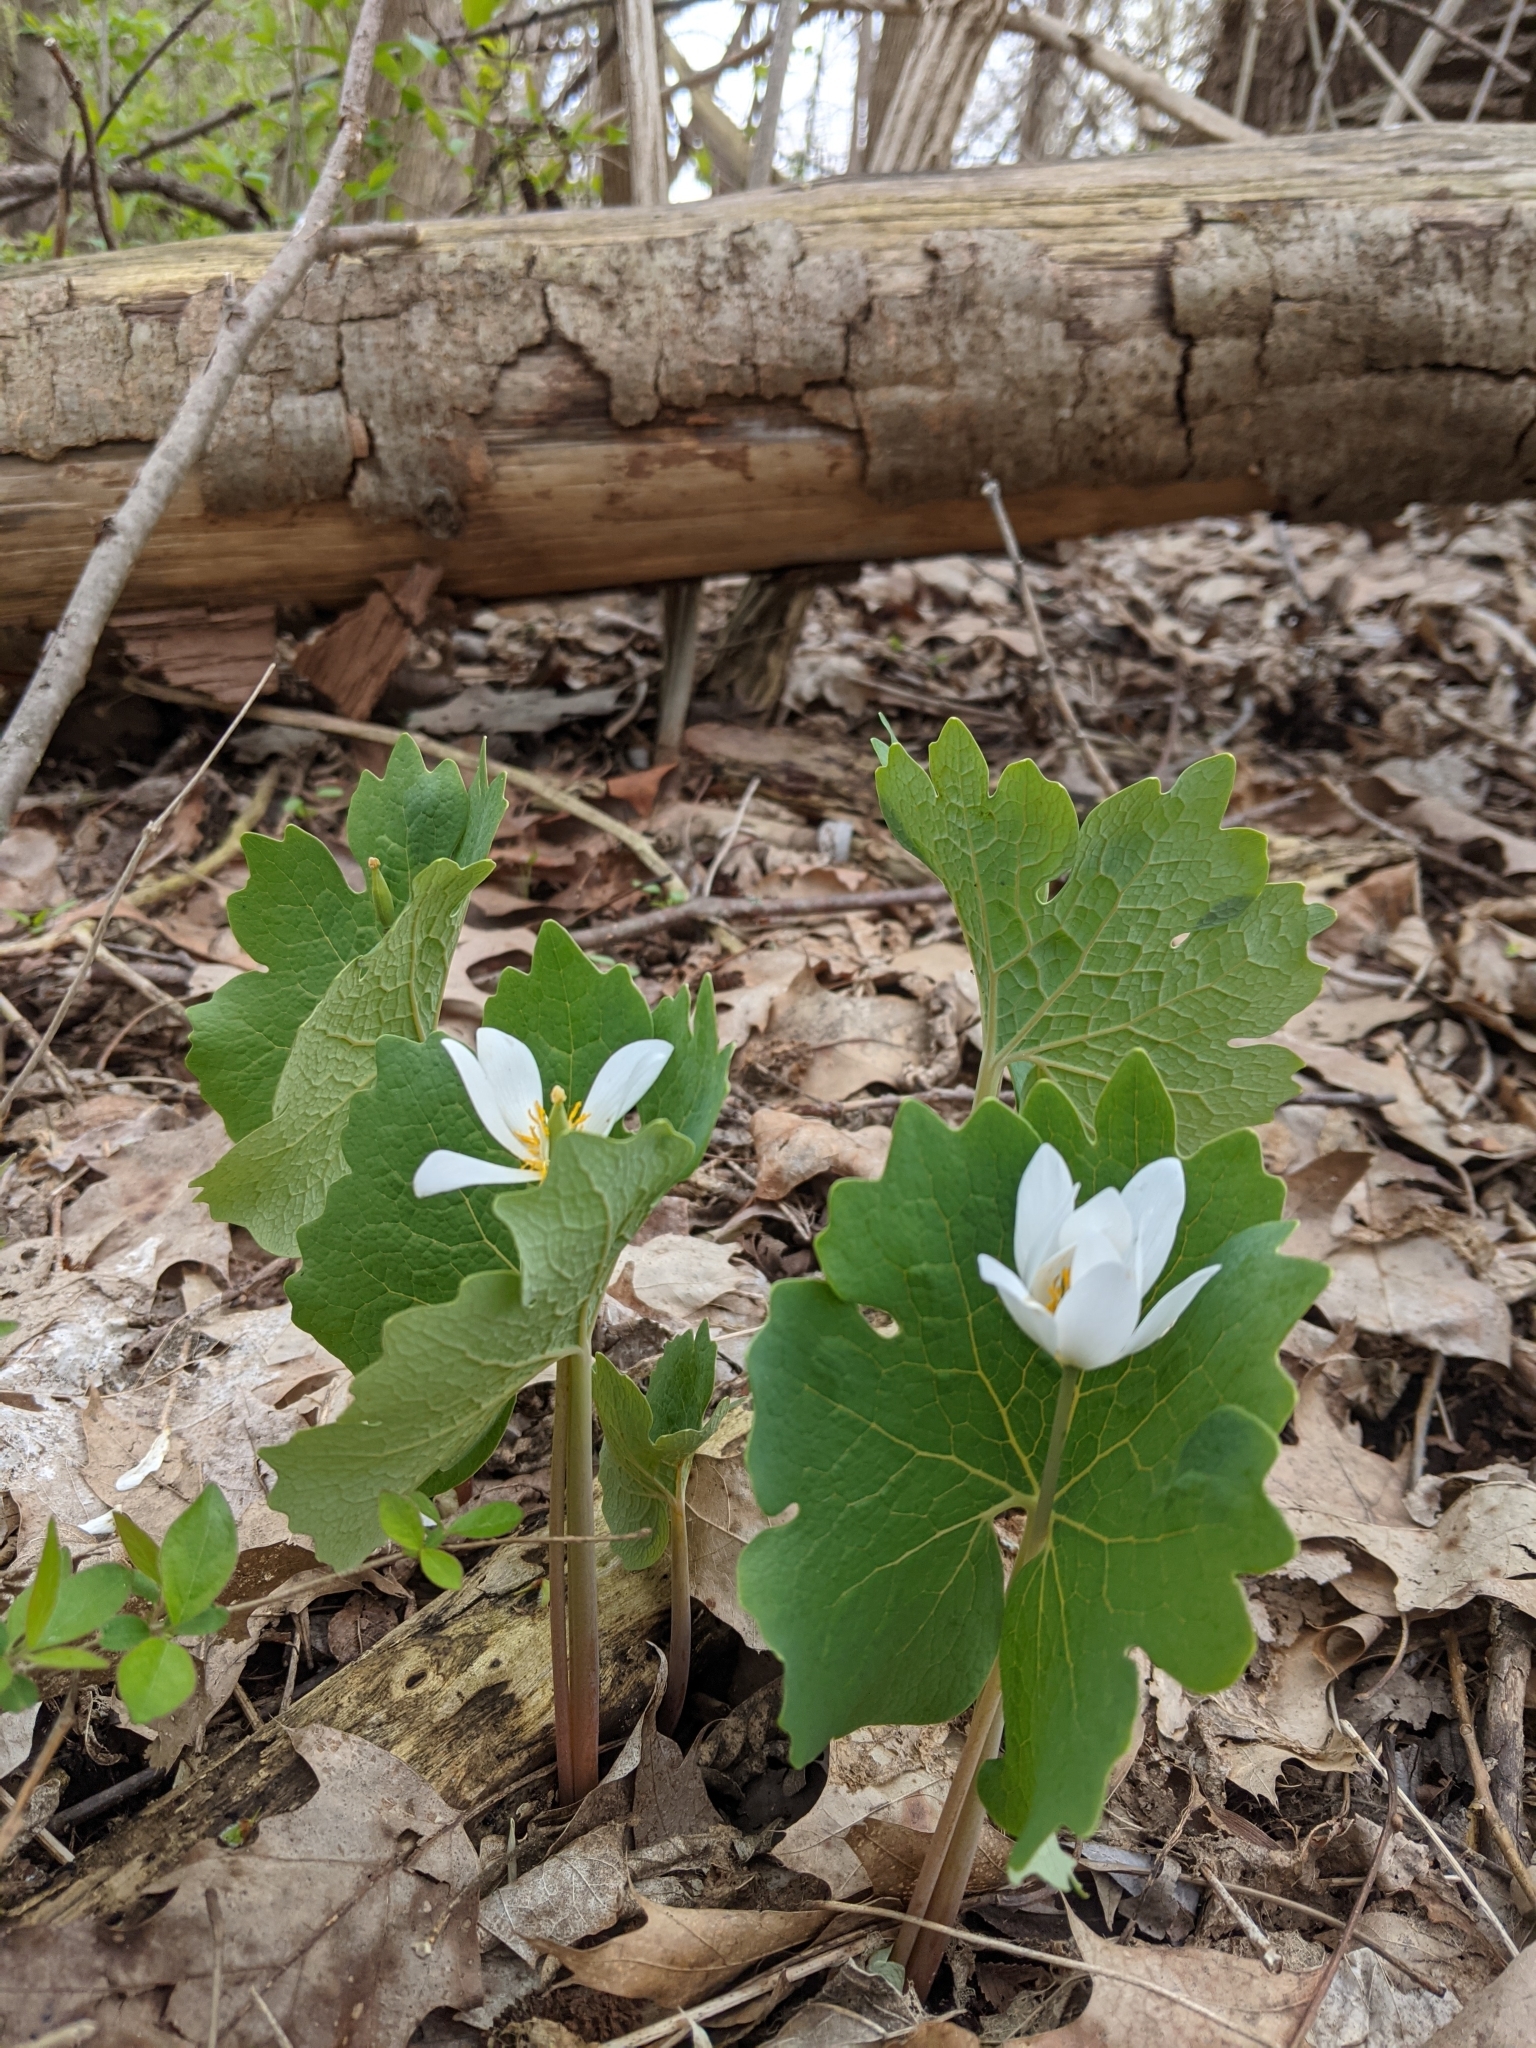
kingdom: Plantae
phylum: Tracheophyta
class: Magnoliopsida
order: Ranunculales
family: Papaveraceae
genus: Sanguinaria
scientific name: Sanguinaria canadensis
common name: Bloodroot
